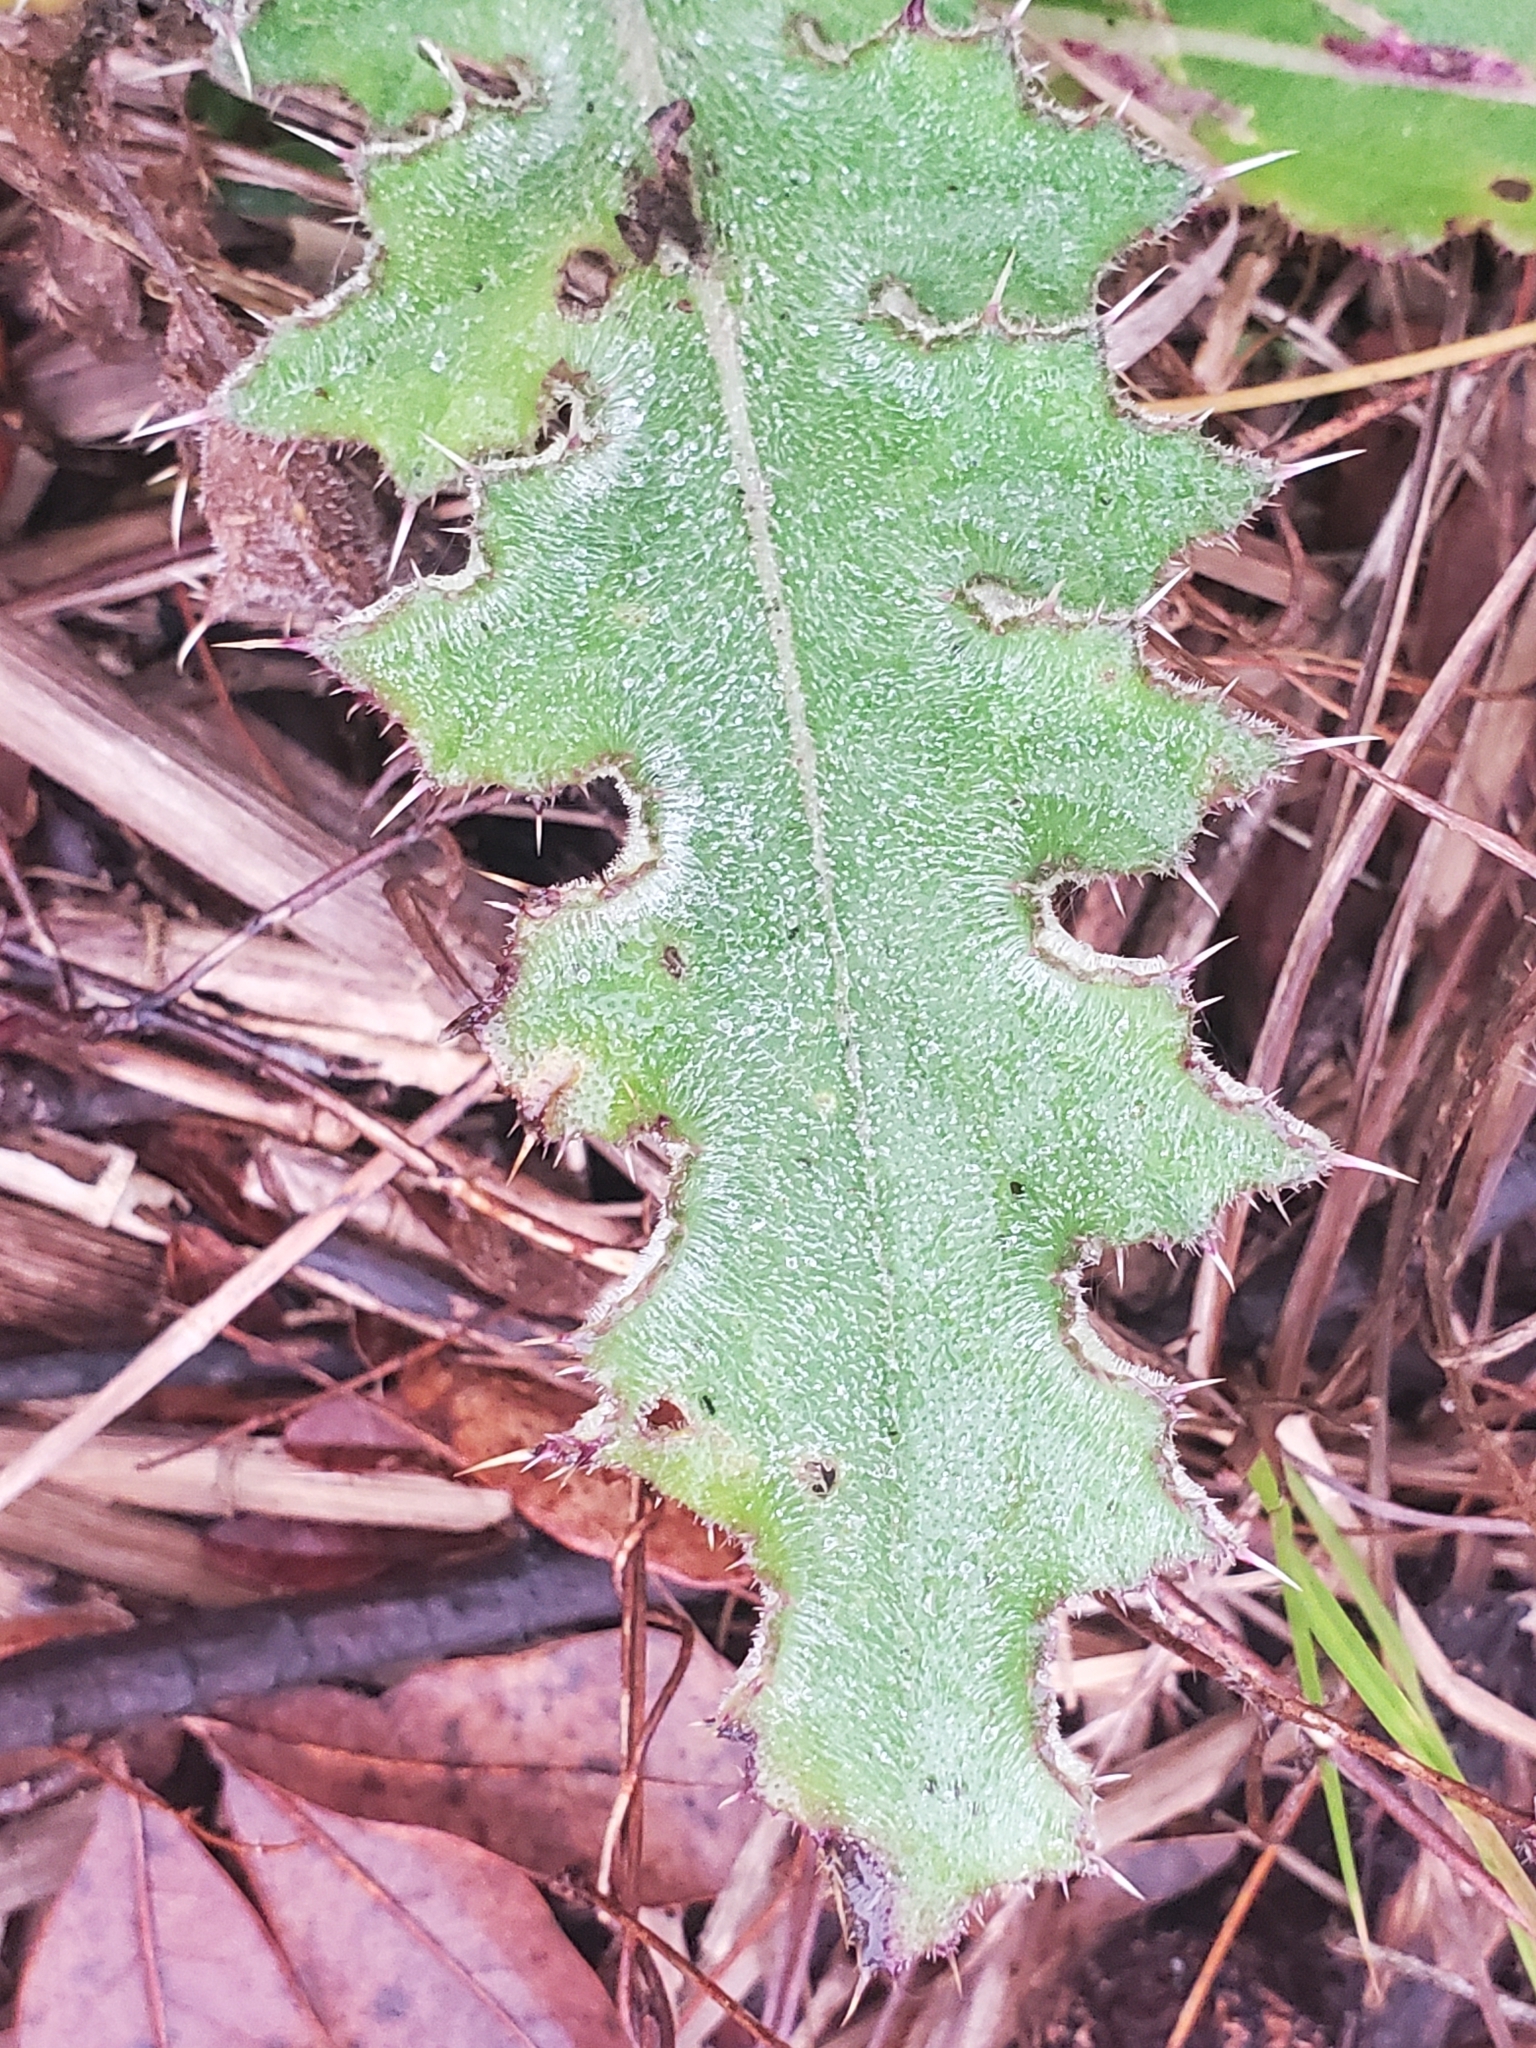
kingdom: Plantae
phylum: Tracheophyta
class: Magnoliopsida
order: Asterales
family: Asteraceae
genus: Cirsium
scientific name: Cirsium horridulum
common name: Bristly thistle
